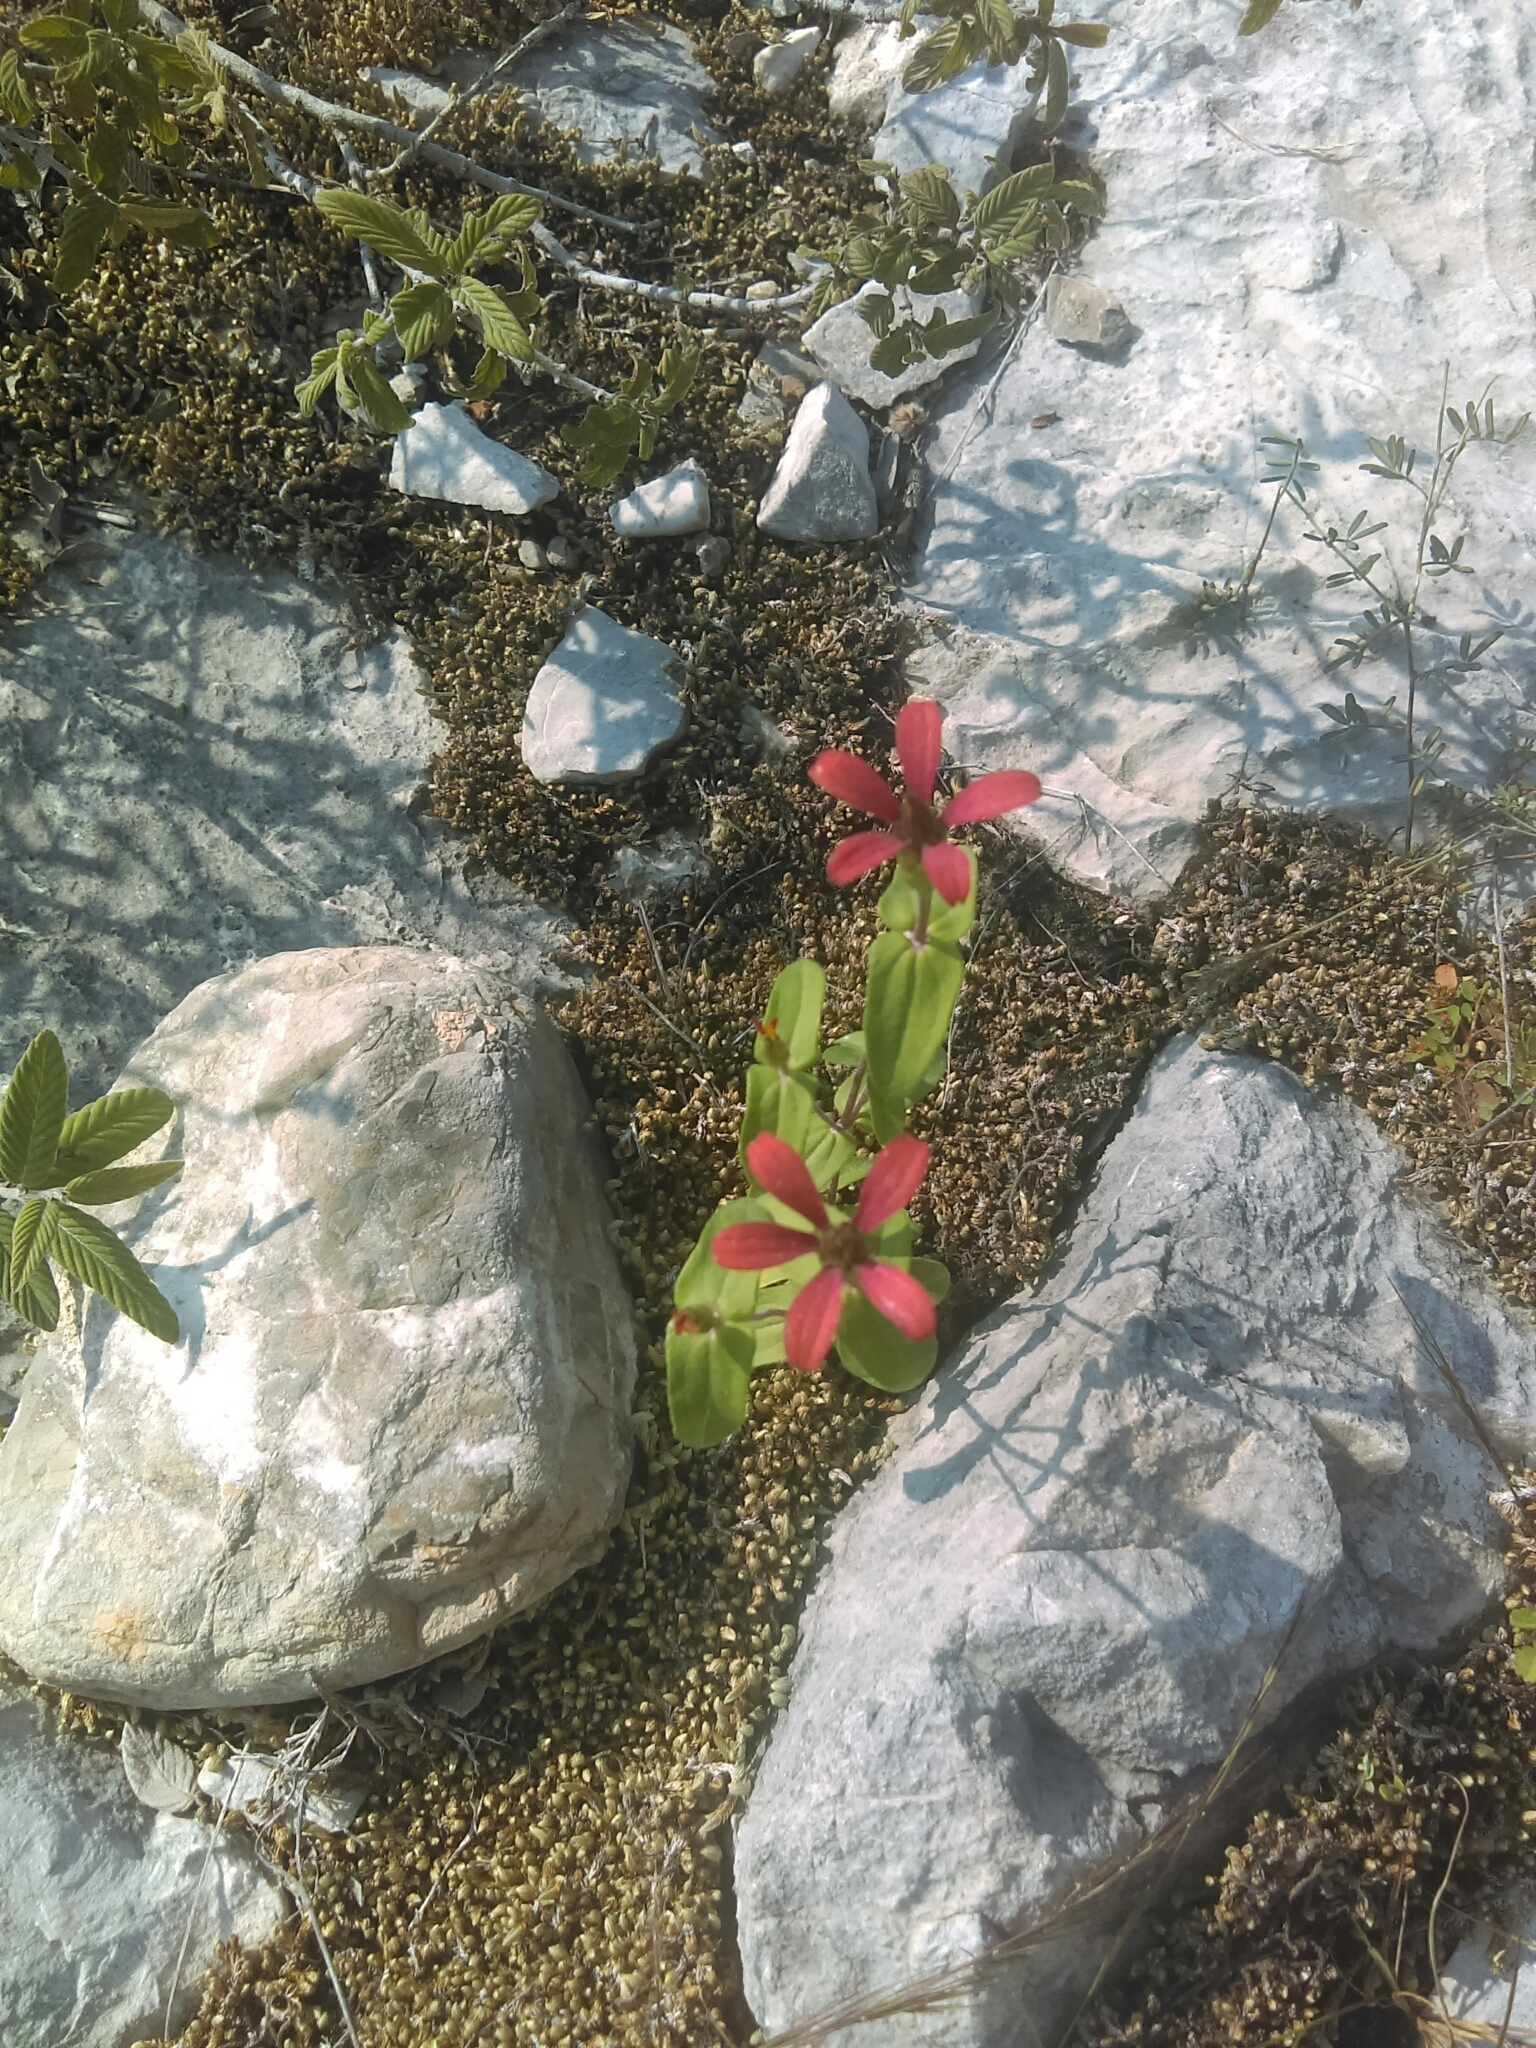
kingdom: Plantae
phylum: Tracheophyta
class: Magnoliopsida
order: Asterales
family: Asteraceae
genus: Zinnia
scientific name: Zinnia peruviana
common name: Peruvian zinnia
